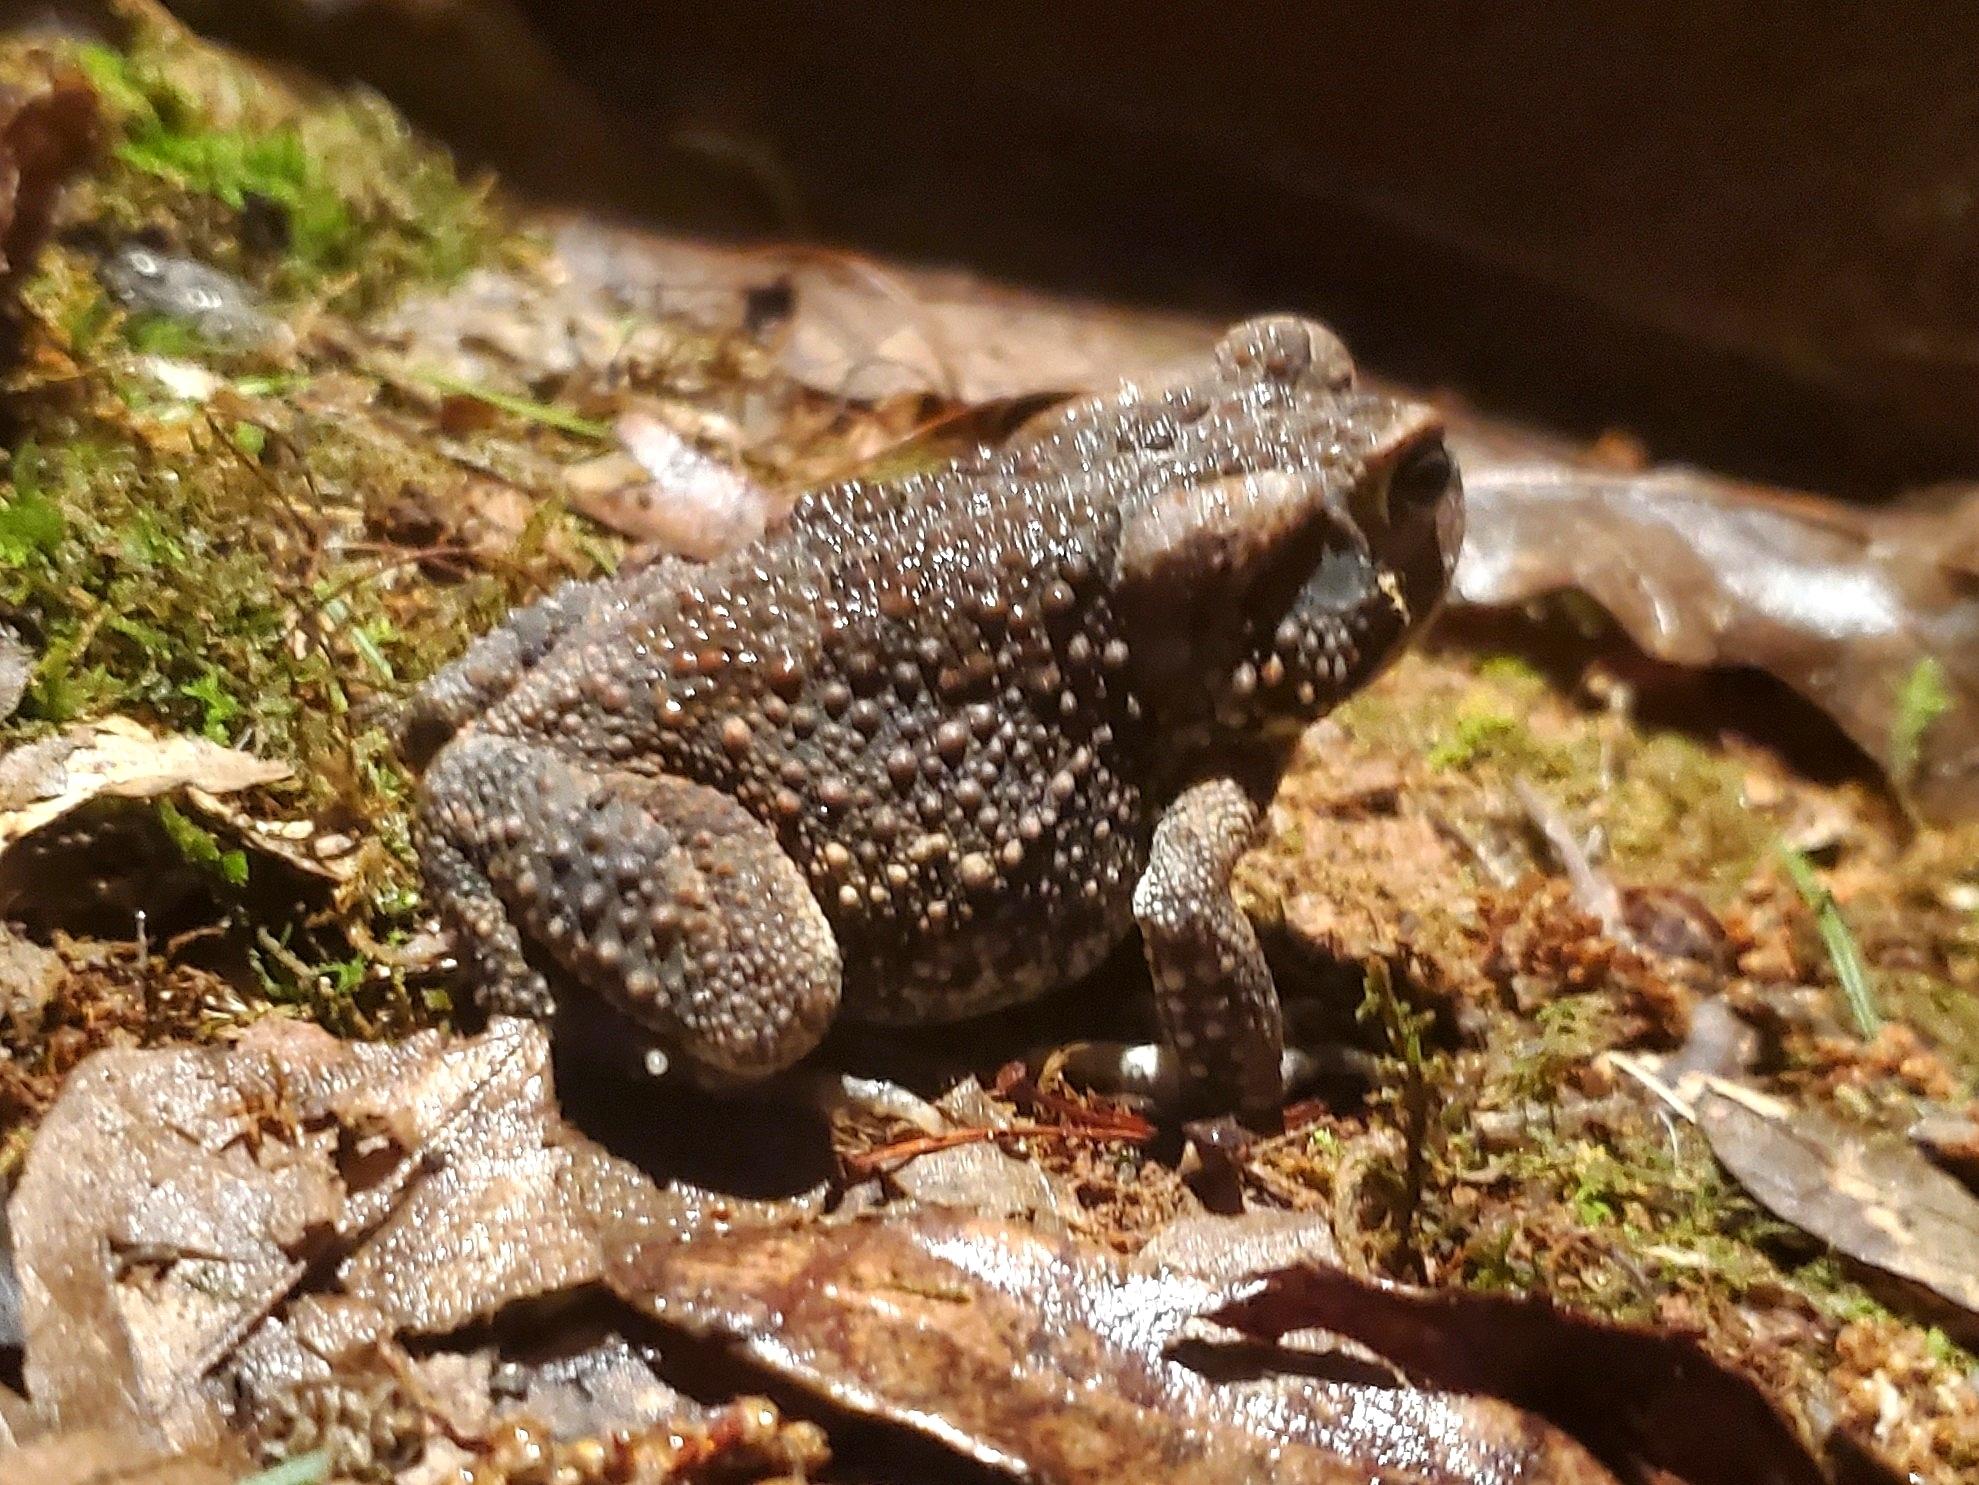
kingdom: Animalia
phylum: Chordata
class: Amphibia
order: Anura
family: Bufonidae
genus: Anaxyrus
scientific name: Anaxyrus fowleri
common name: Fowler's toad
